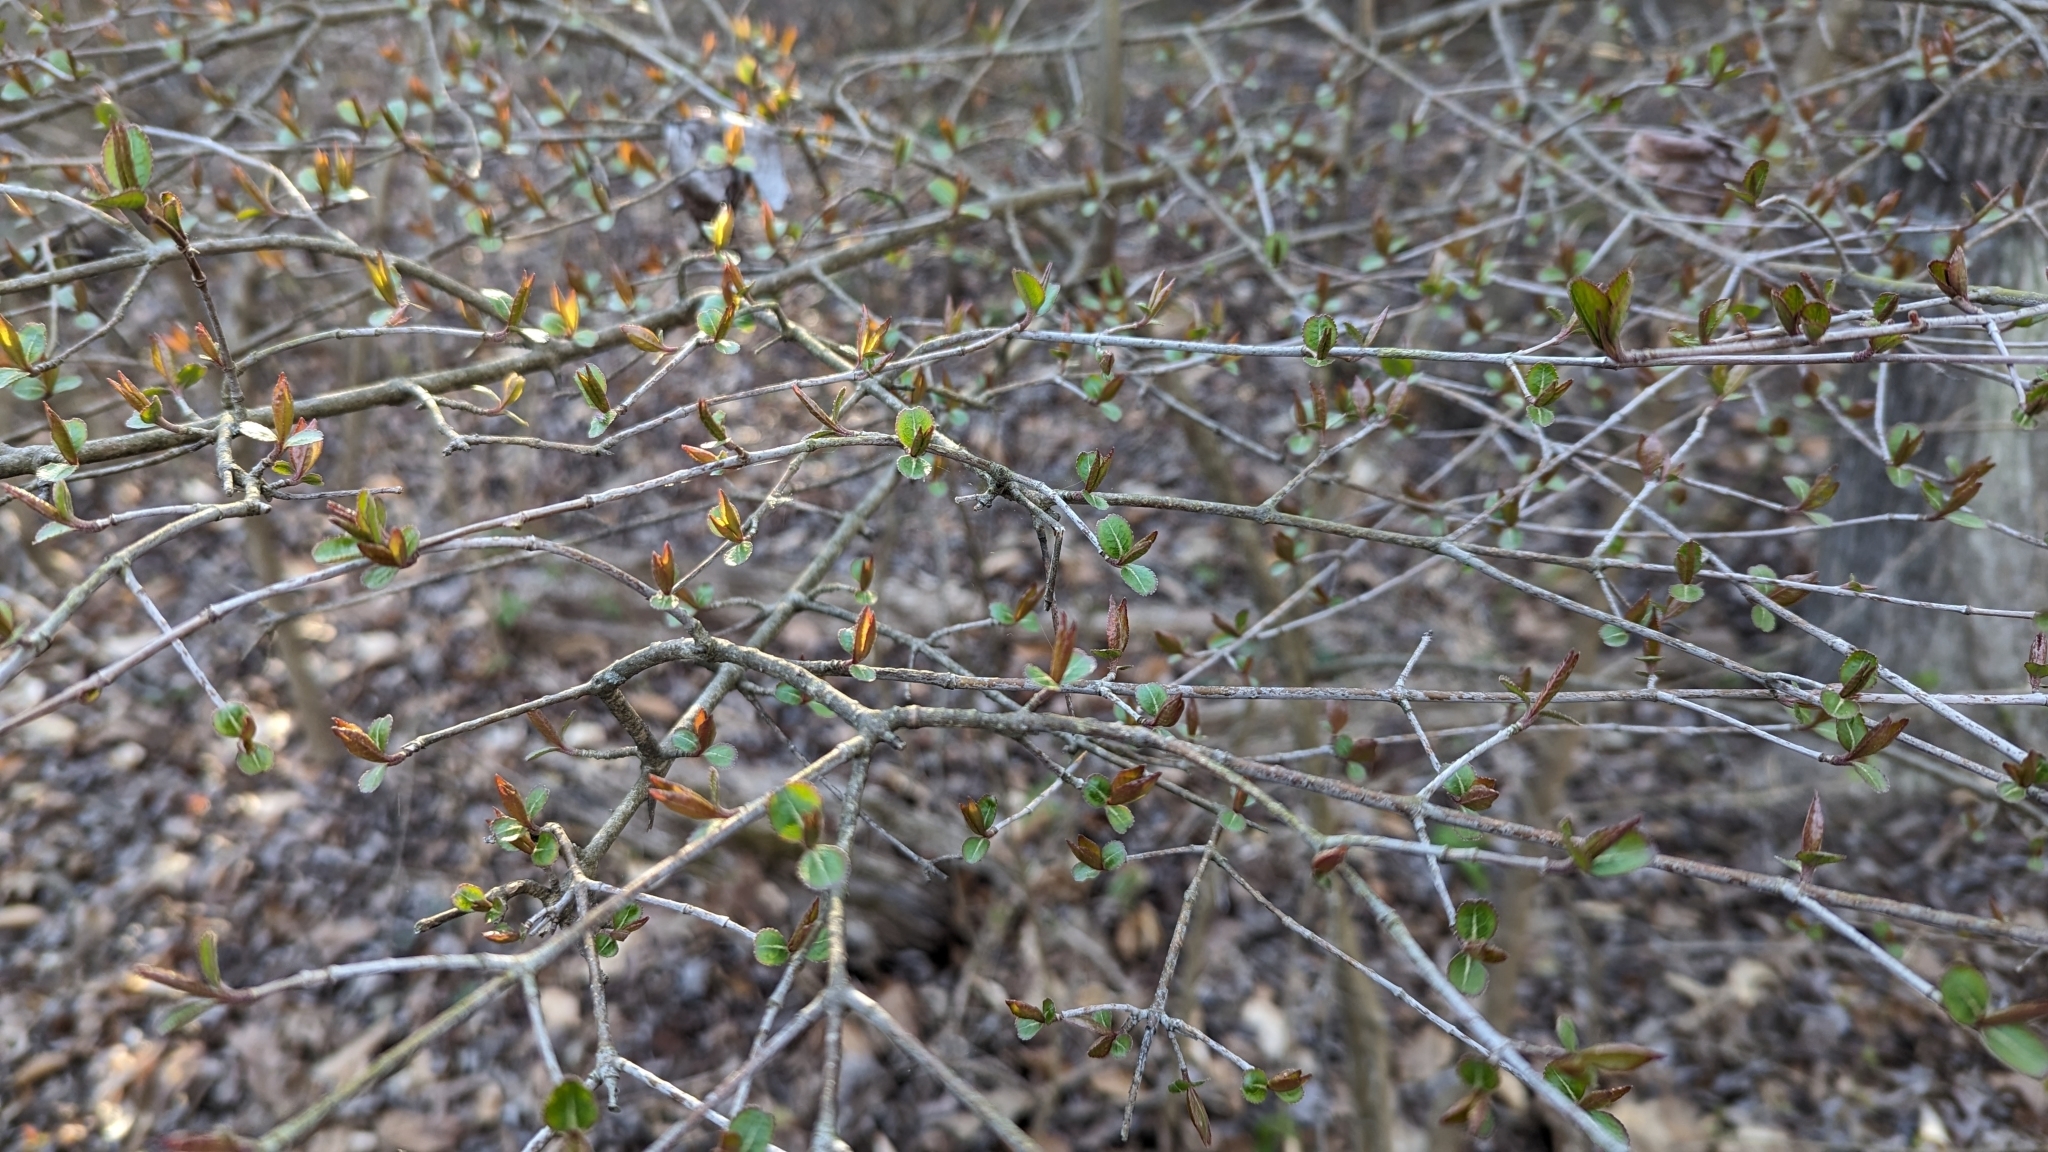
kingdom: Plantae
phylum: Tracheophyta
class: Magnoliopsida
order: Dipsacales
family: Viburnaceae
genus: Viburnum
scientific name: Viburnum prunifolium
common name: Black haw
